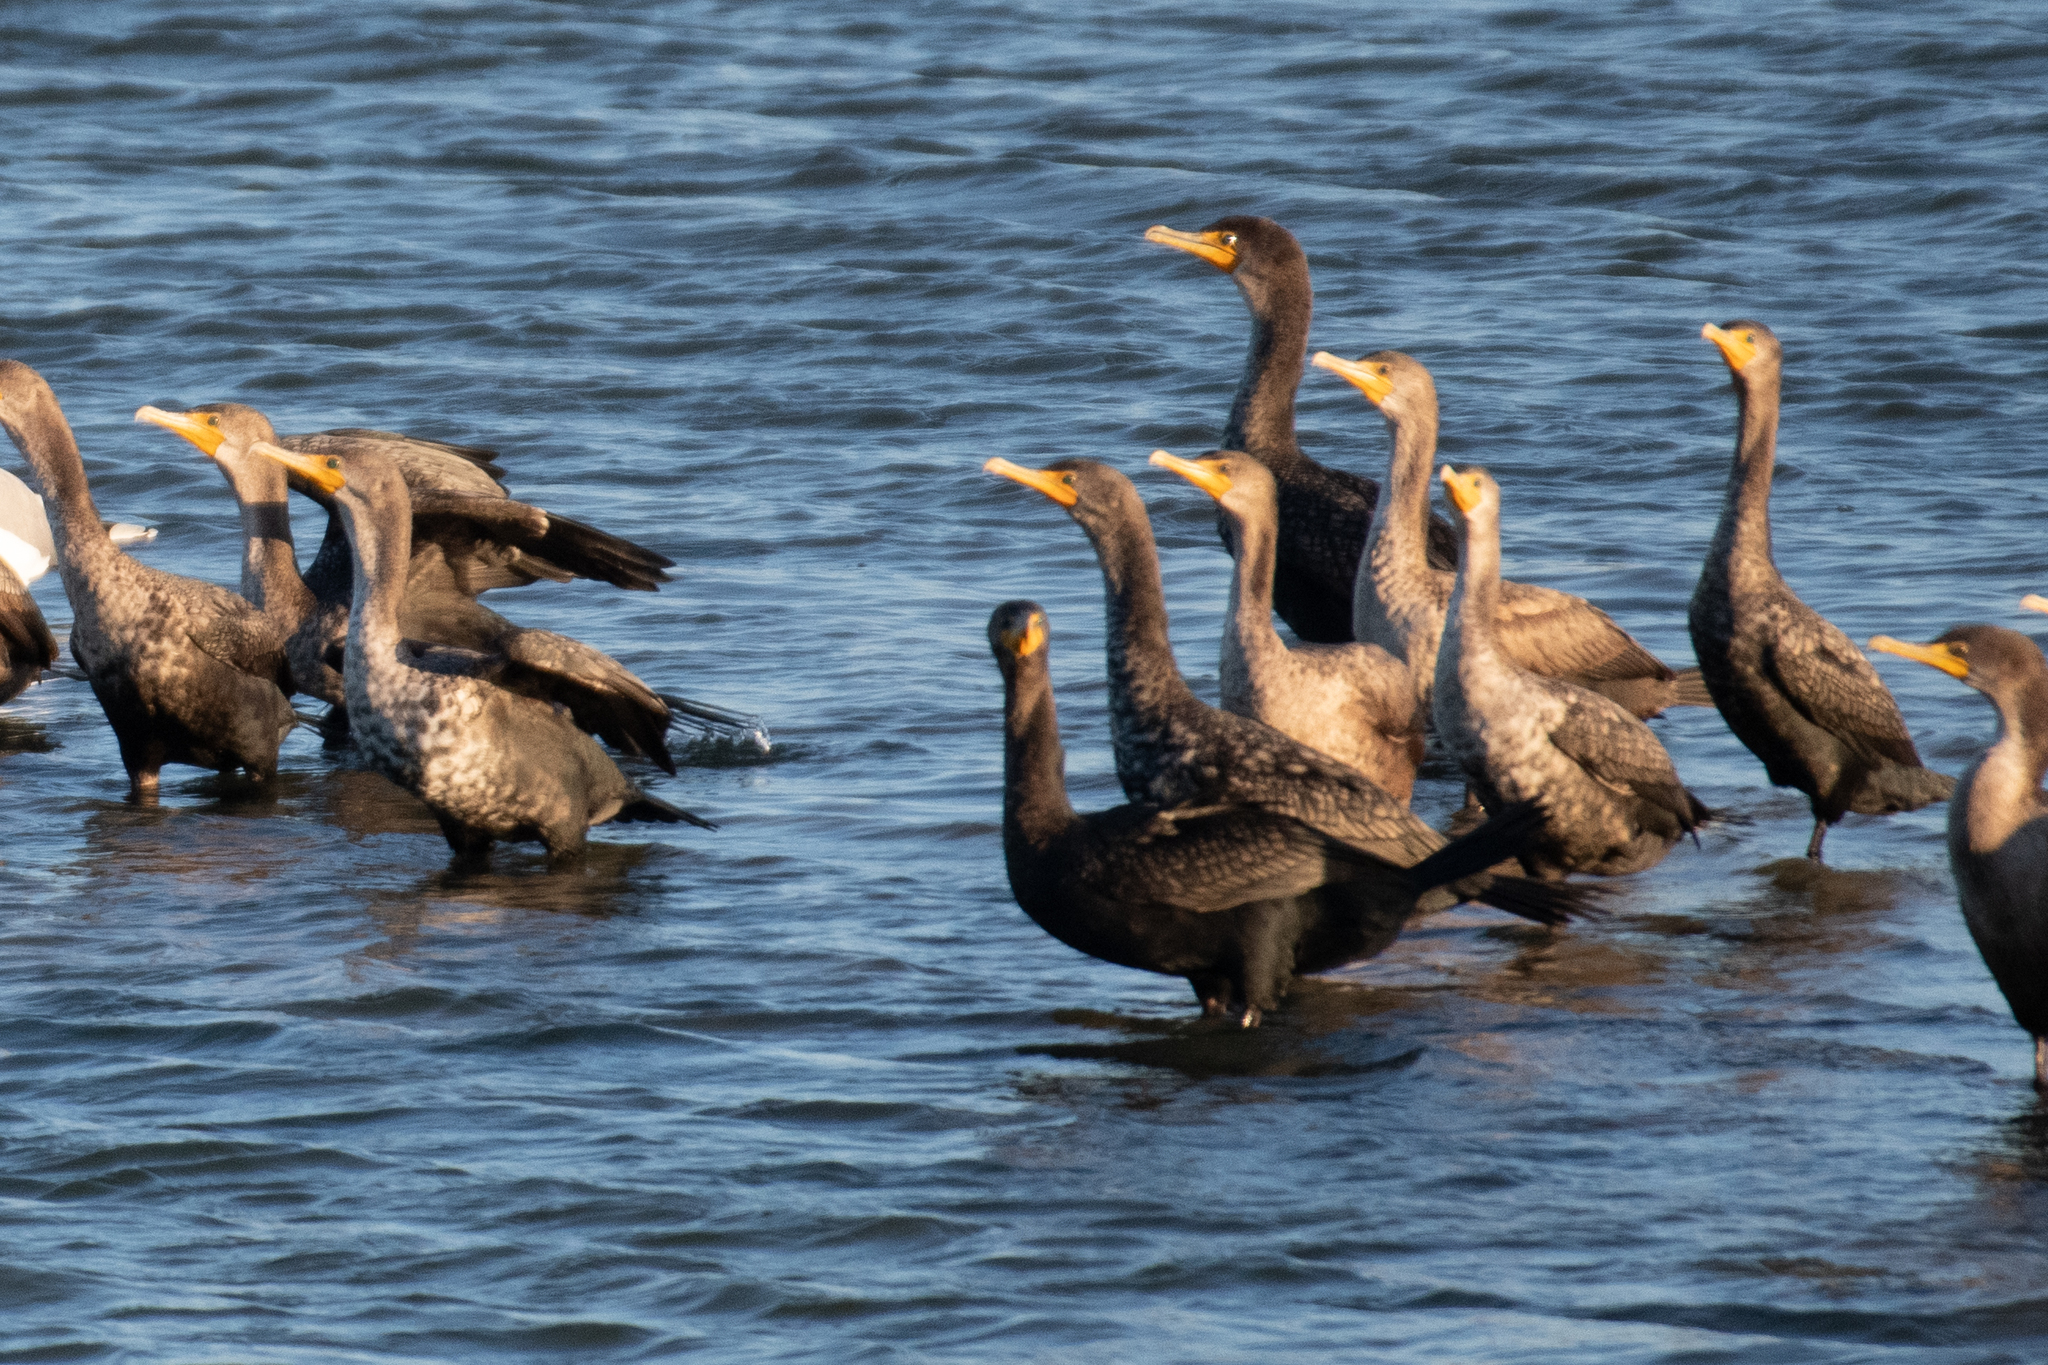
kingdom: Animalia
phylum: Chordata
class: Aves
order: Suliformes
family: Phalacrocoracidae
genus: Phalacrocorax
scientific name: Phalacrocorax auritus
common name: Double-crested cormorant
